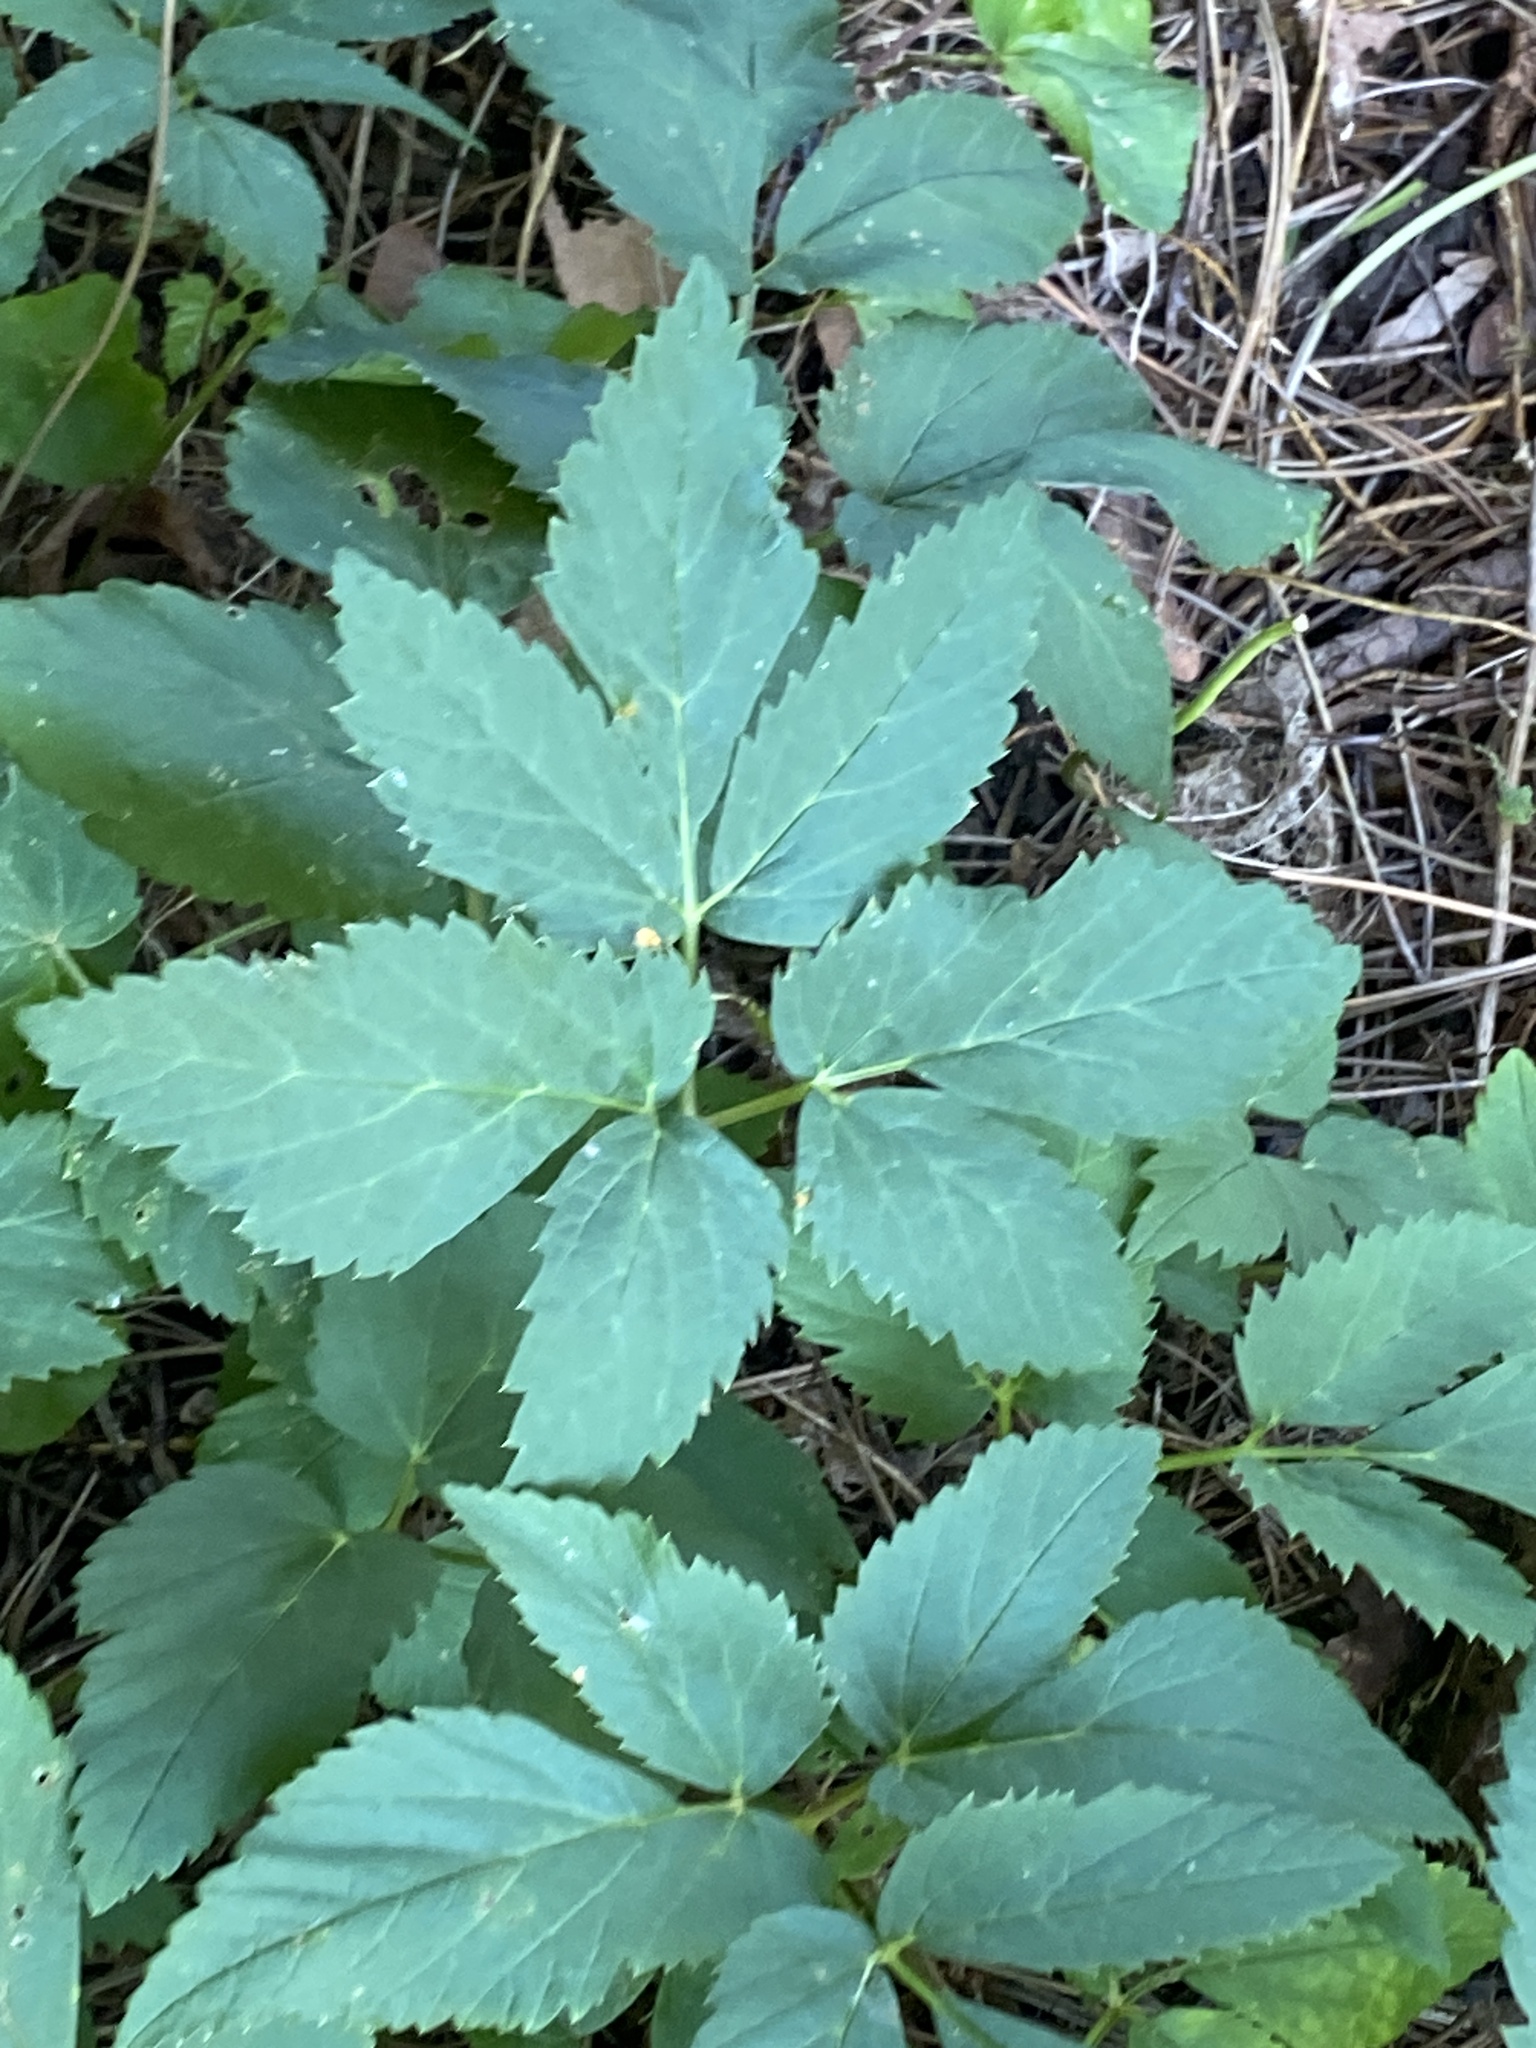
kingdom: Plantae
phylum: Tracheophyta
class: Magnoliopsida
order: Apiales
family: Apiaceae
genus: Aegopodium
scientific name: Aegopodium podagraria
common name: Ground-elder
